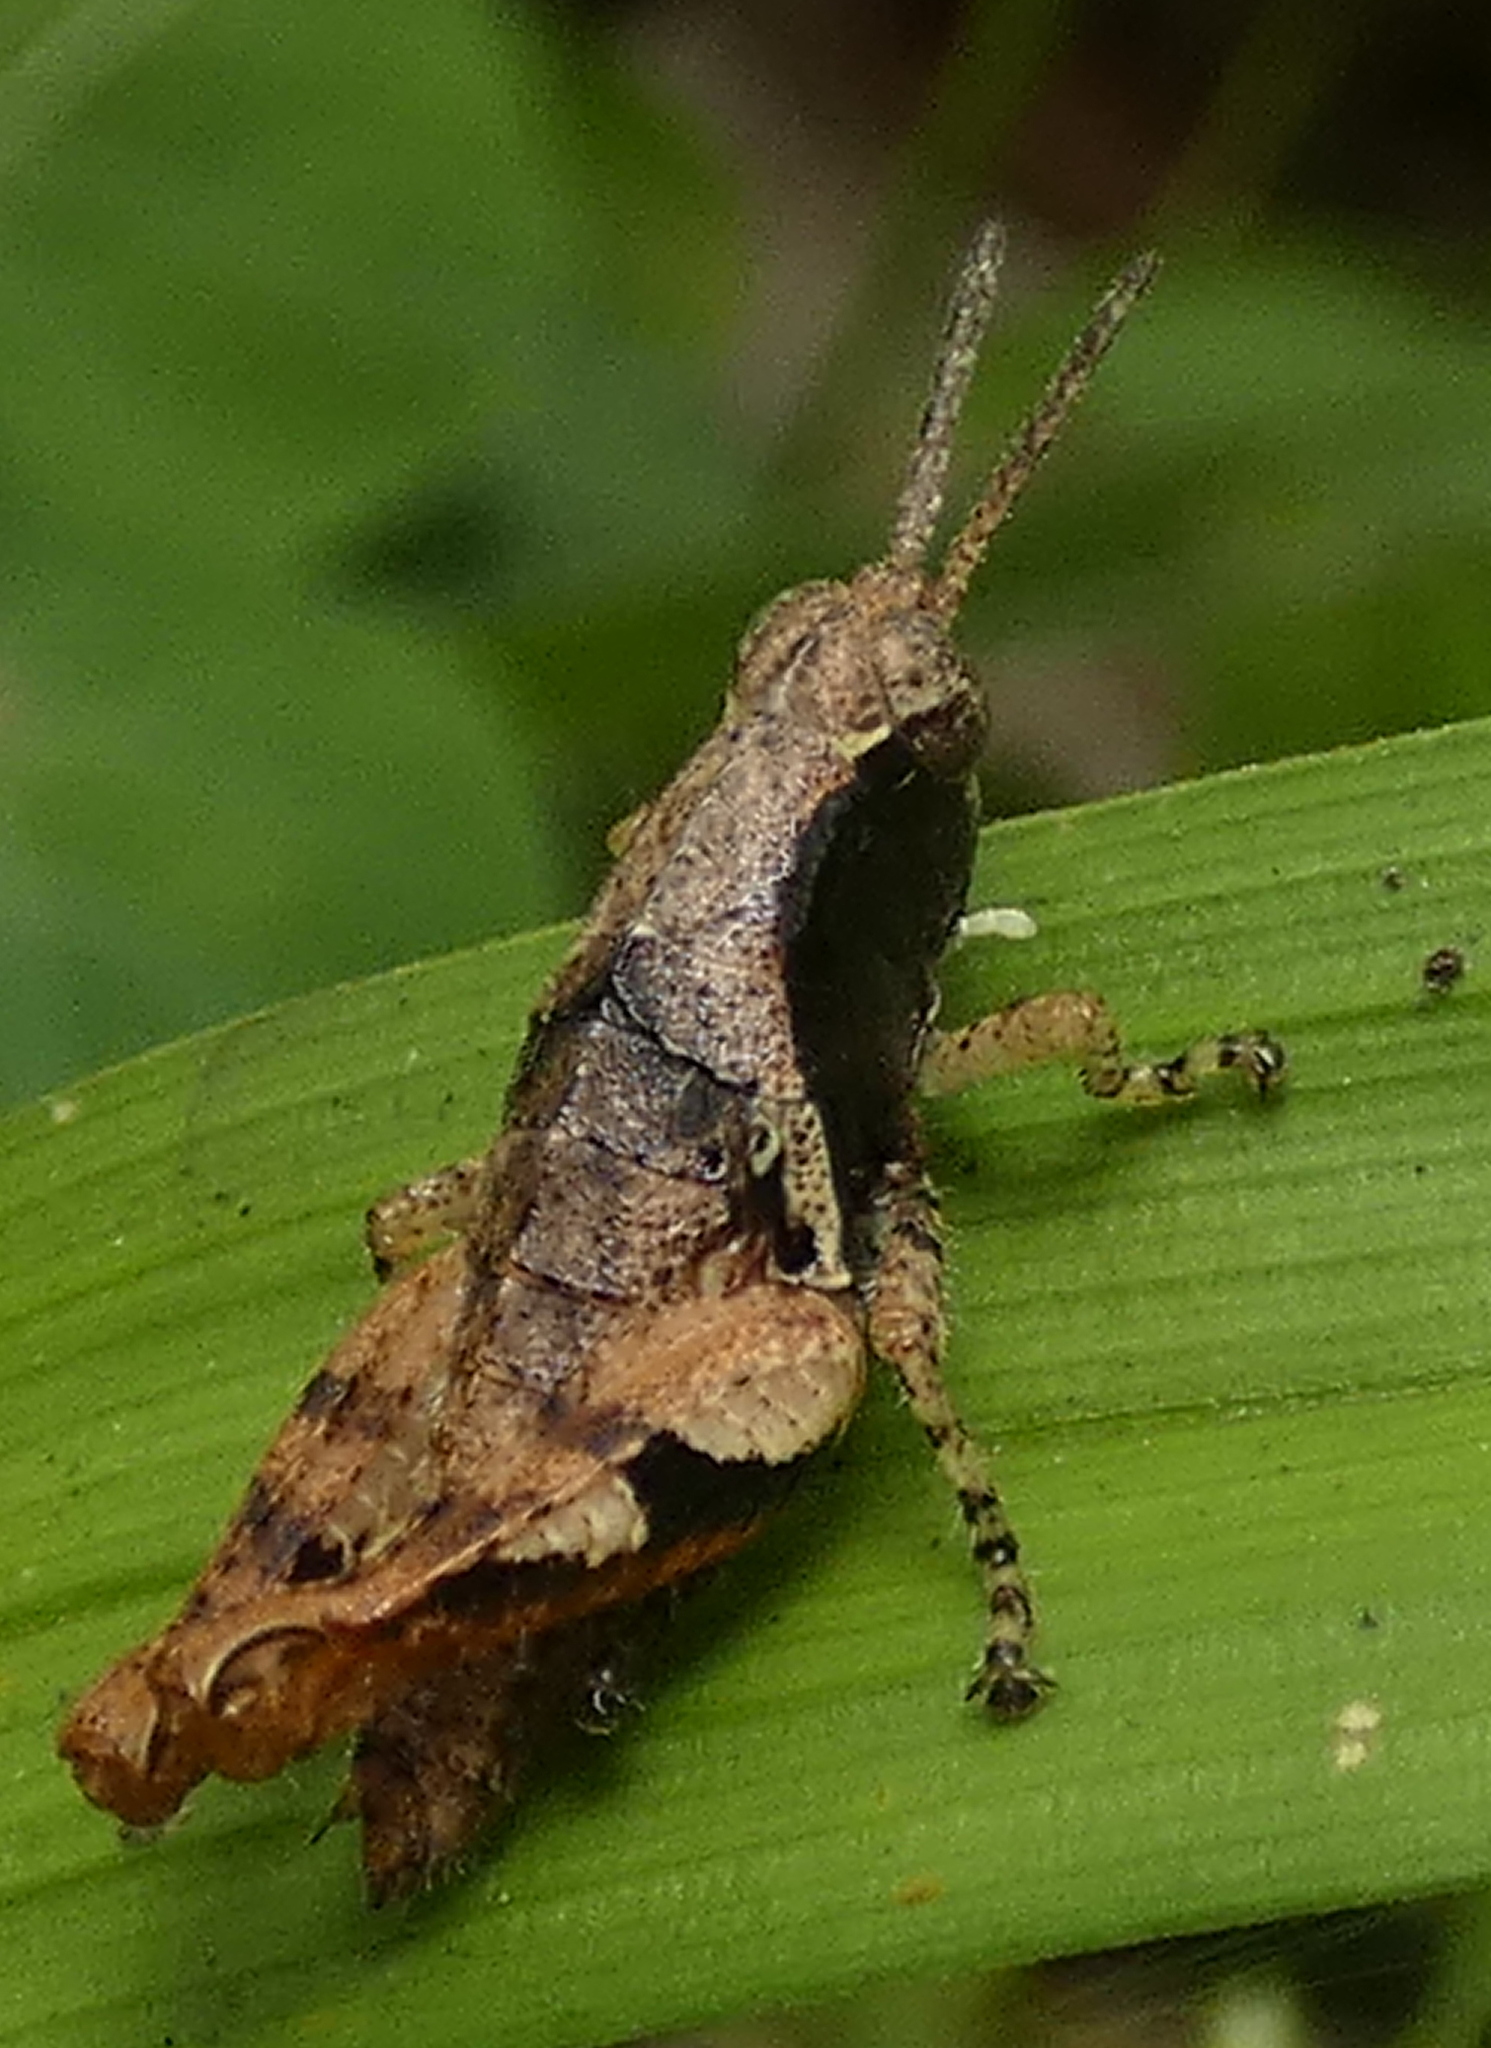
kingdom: Animalia
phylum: Arthropoda
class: Insecta
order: Orthoptera
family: Acrididae
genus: Eujivarus
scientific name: Eujivarus meridionalis
